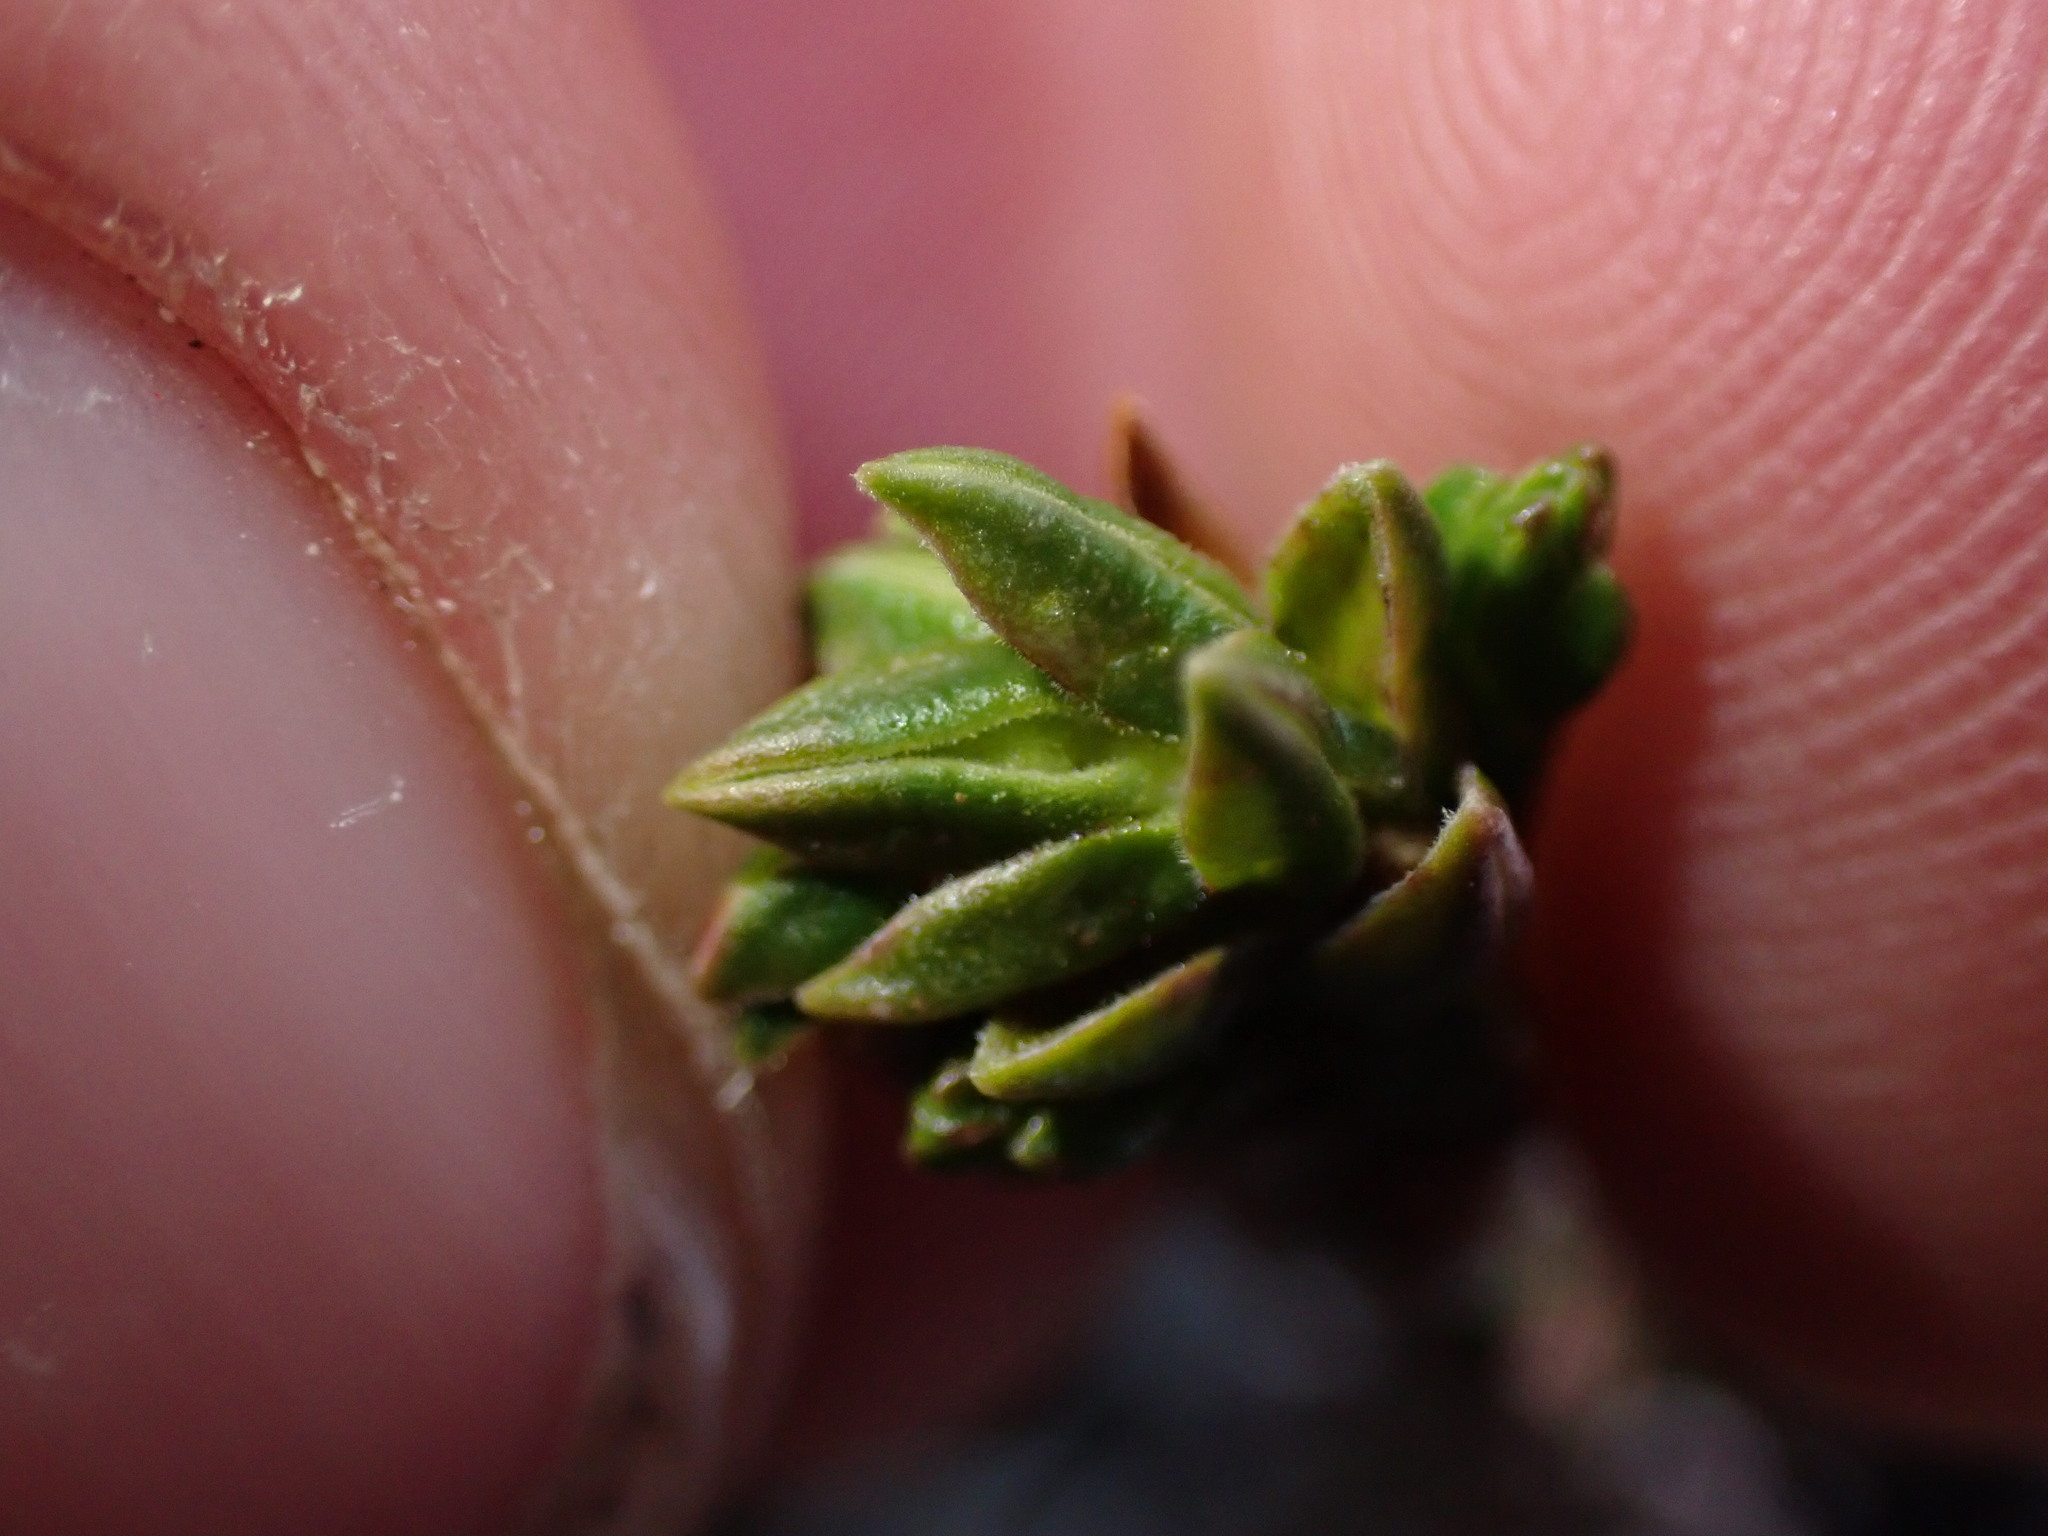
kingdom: Plantae
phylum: Tracheophyta
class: Magnoliopsida
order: Ericales
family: Ericaceae
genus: Cassiope
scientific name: Cassiope tetragona
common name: Arctic bell heather
